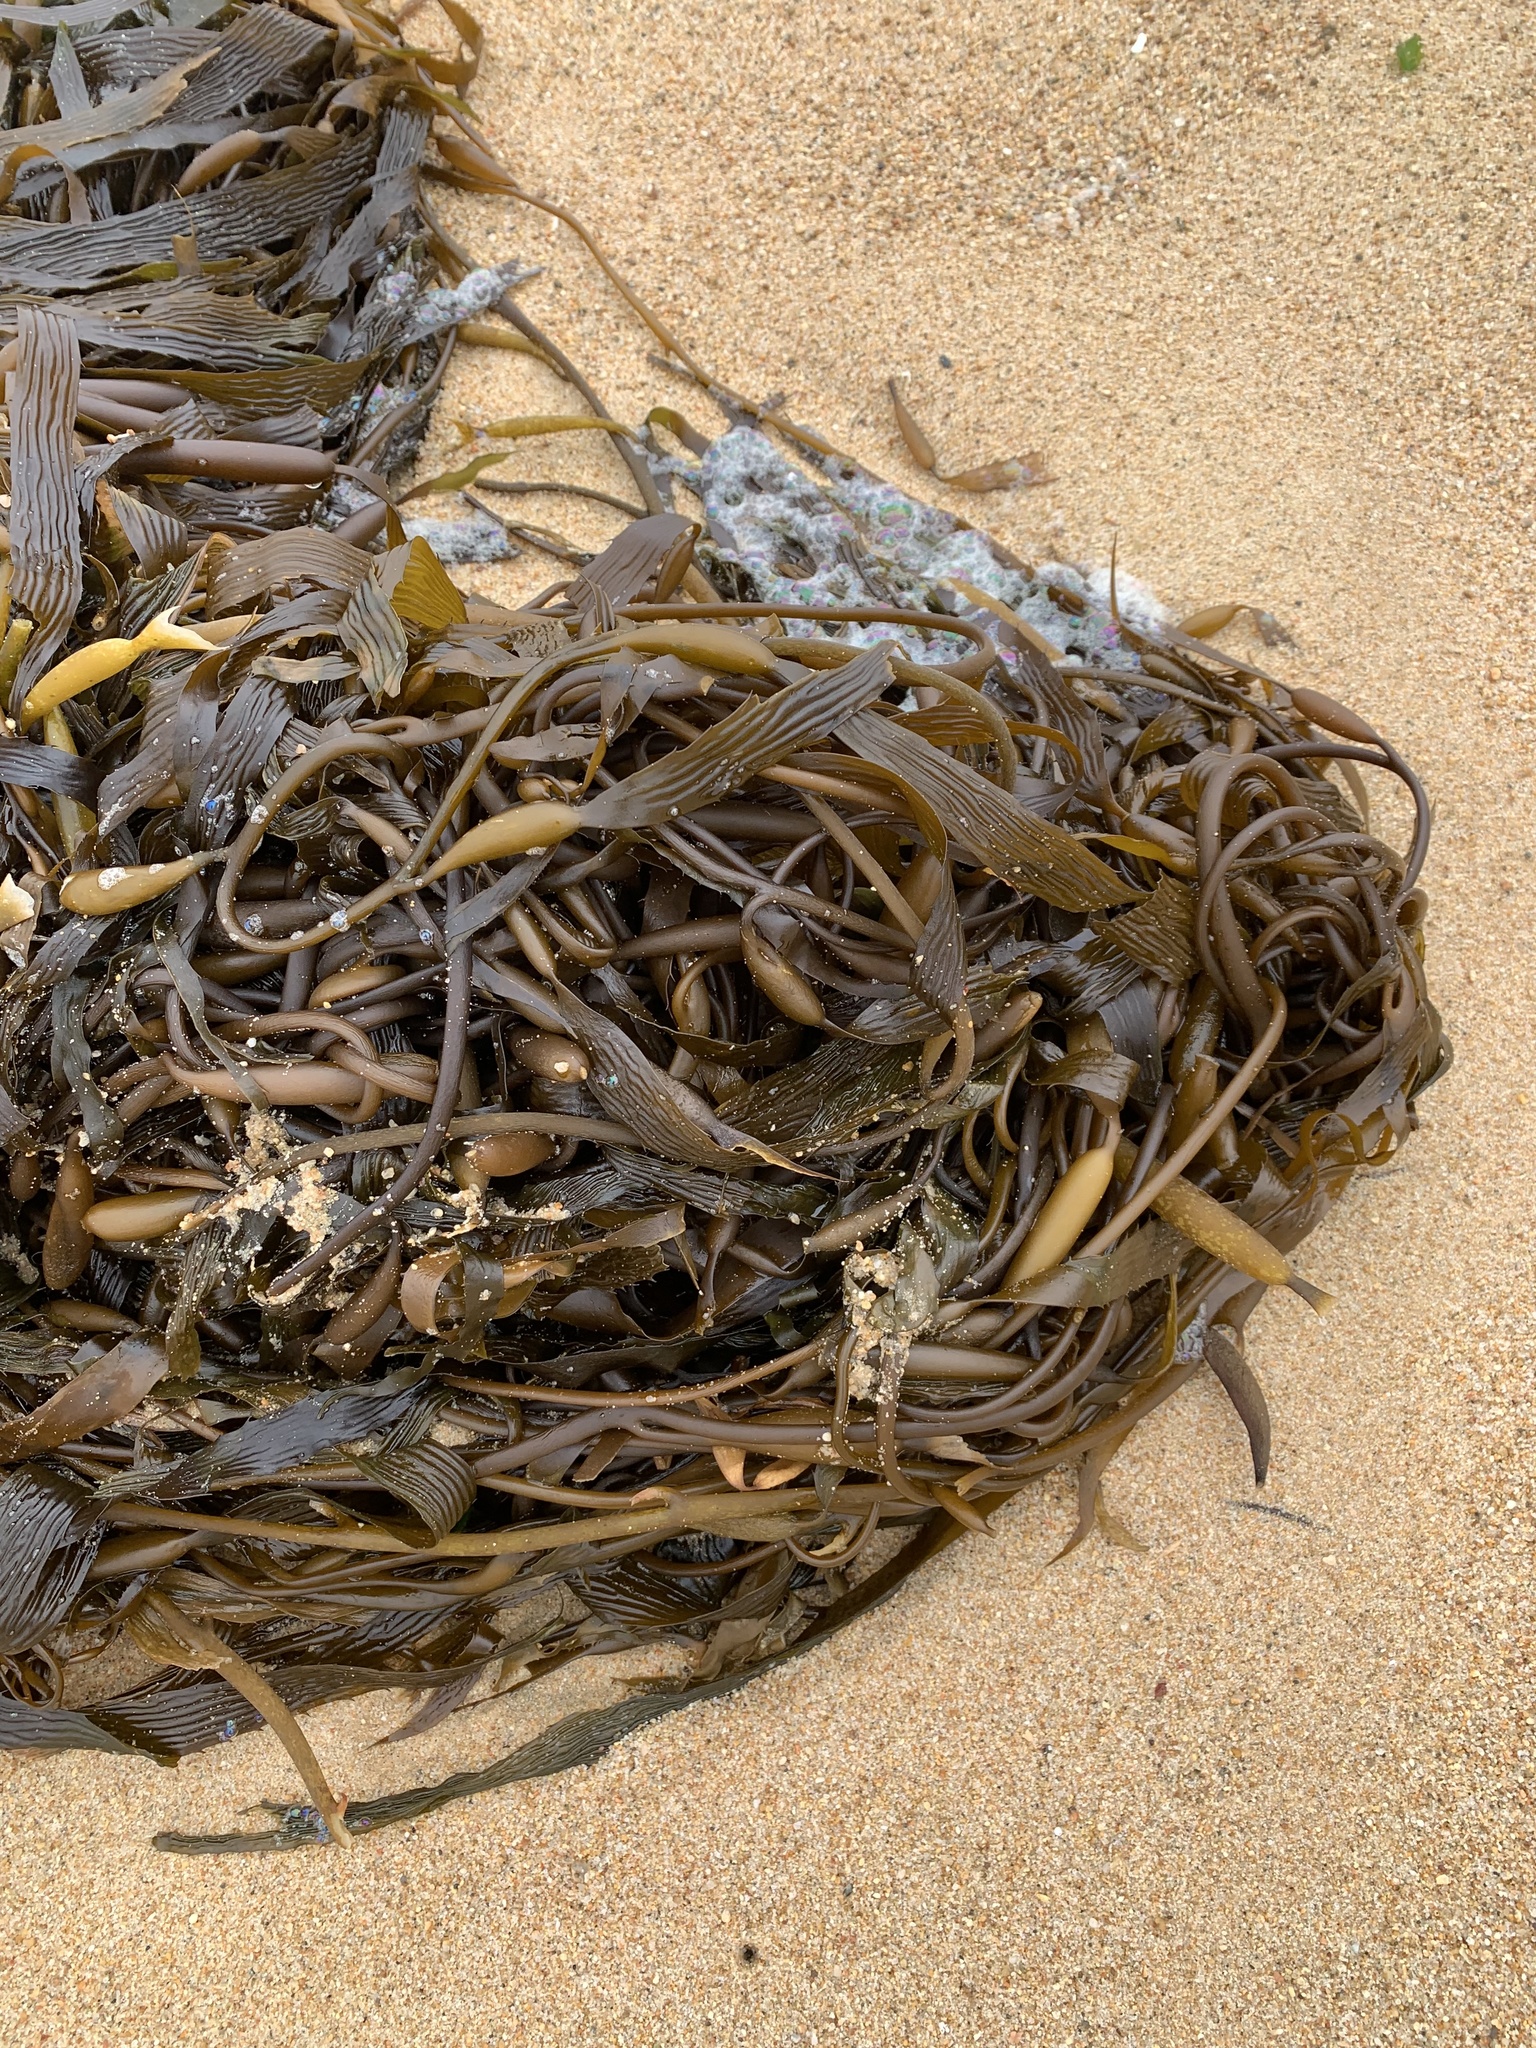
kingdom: Chromista
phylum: Ochrophyta
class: Phaeophyceae
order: Laminariales
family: Laminariaceae
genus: Macrocystis
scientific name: Macrocystis pyrifera
